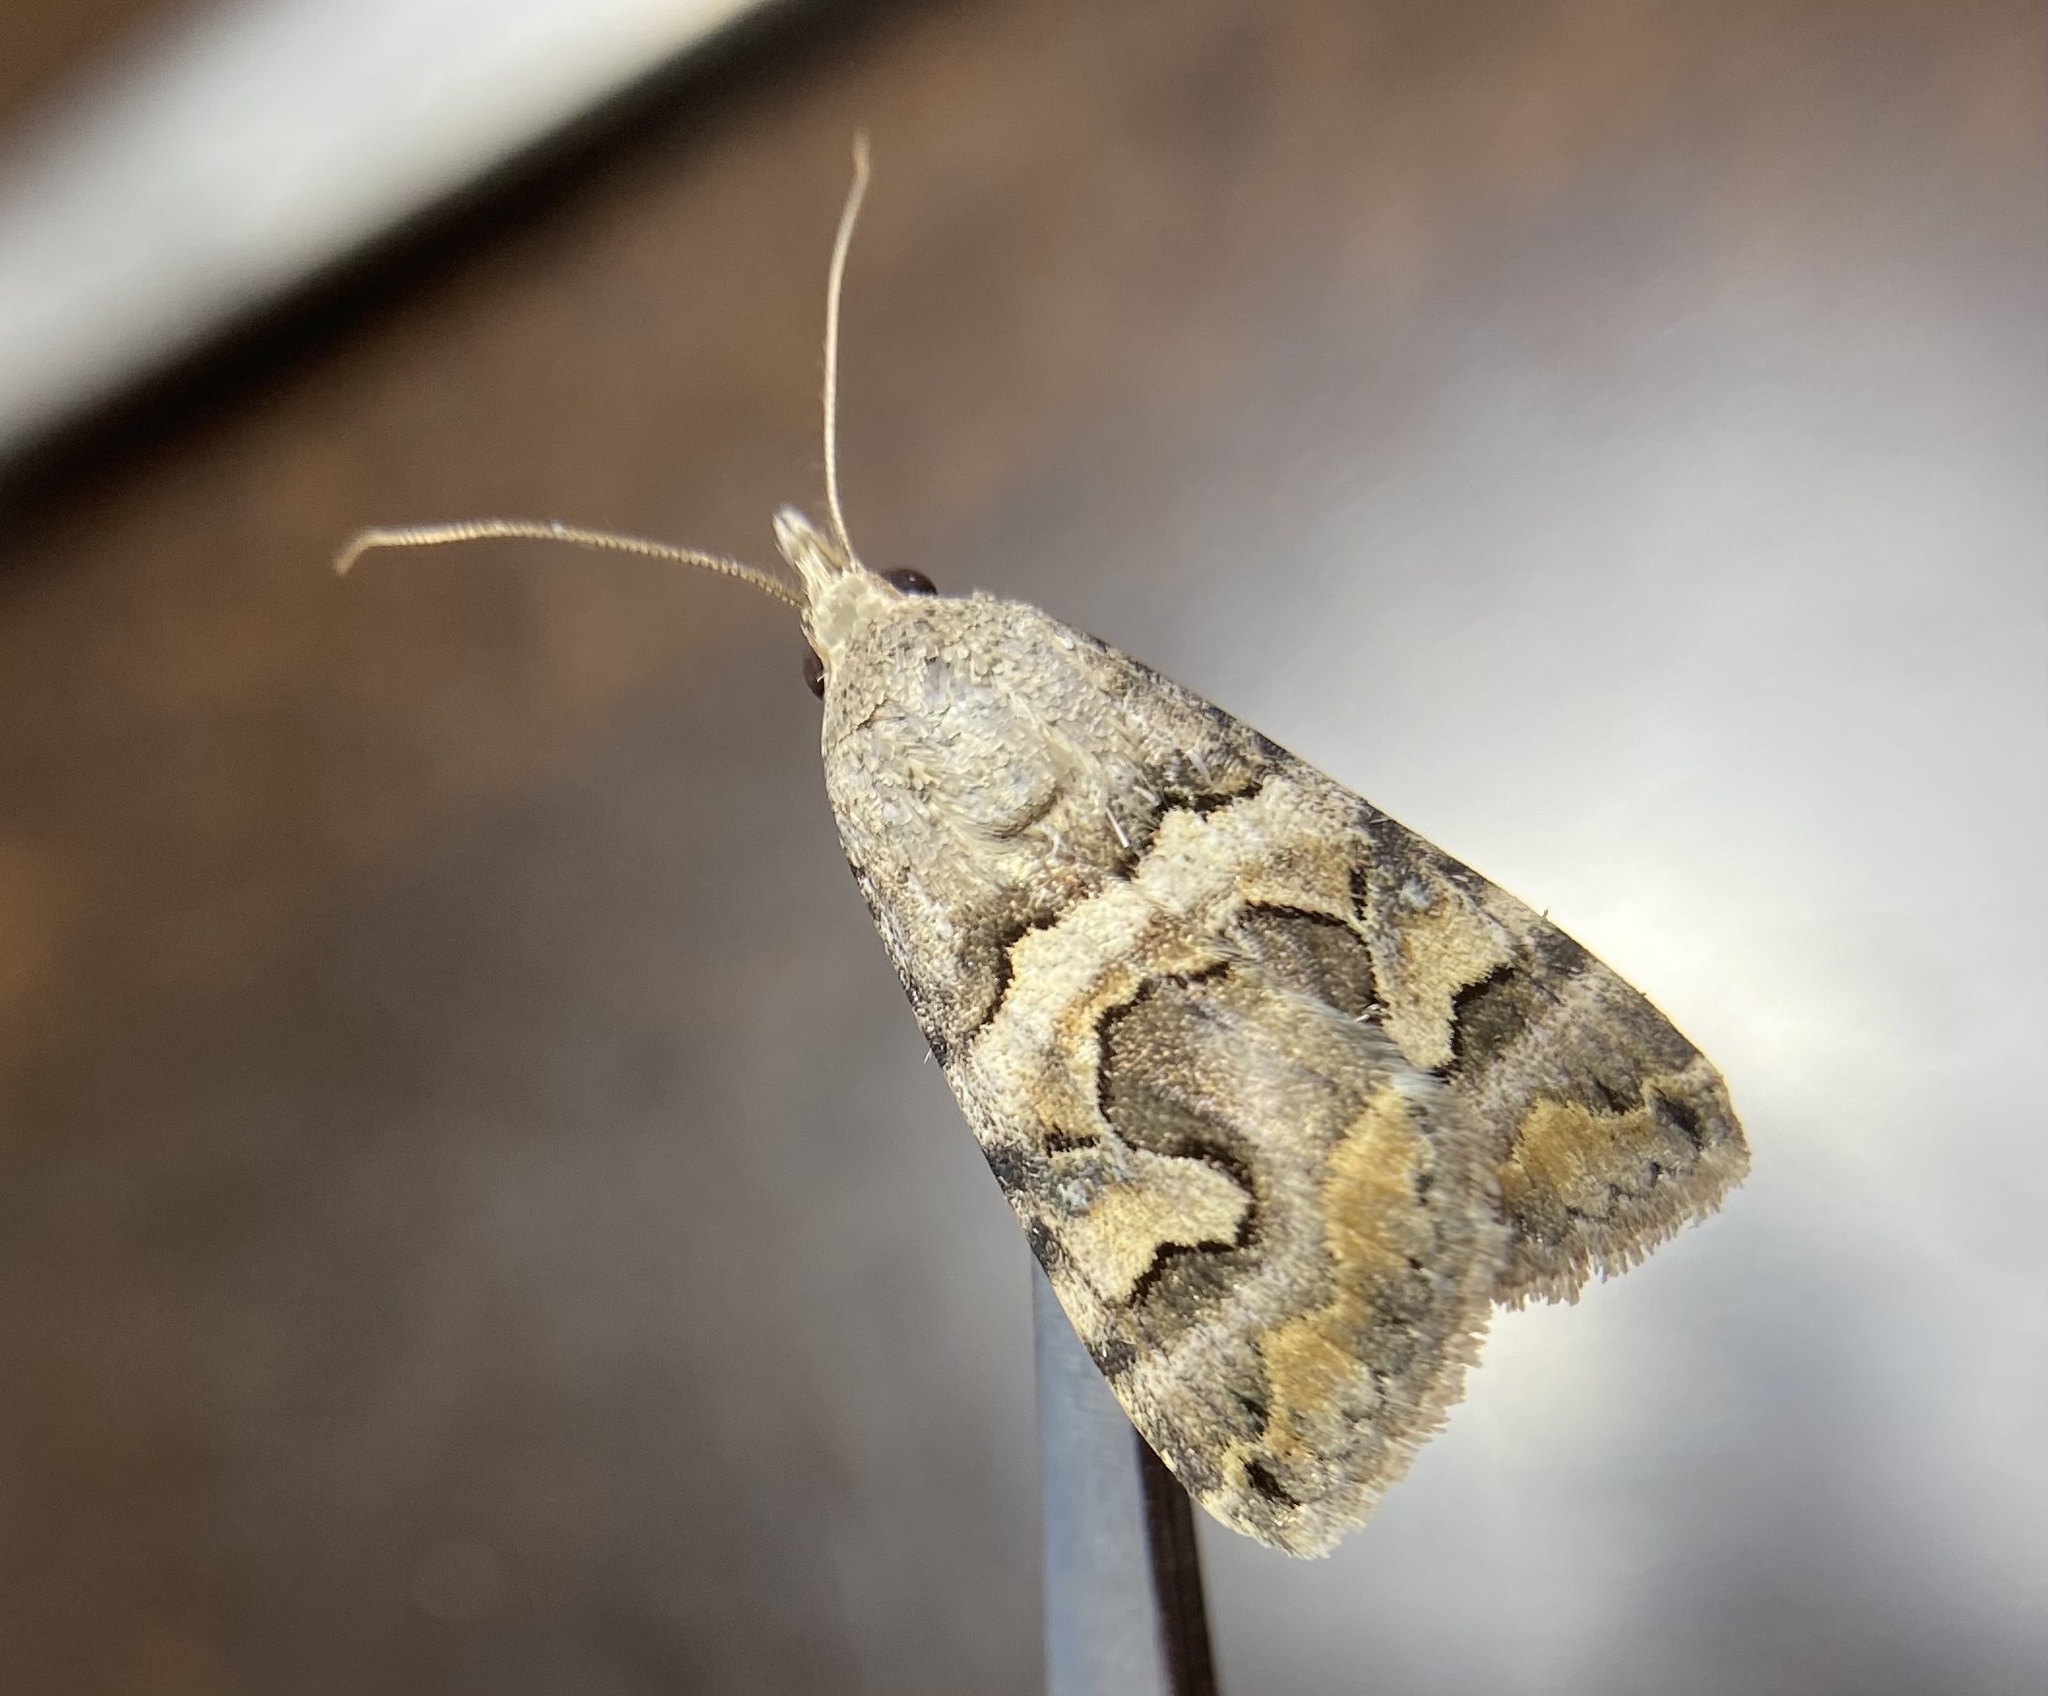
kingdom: Animalia
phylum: Arthropoda
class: Insecta
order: Lepidoptera
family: Erebidae
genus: Bulia
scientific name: Bulia deducta
